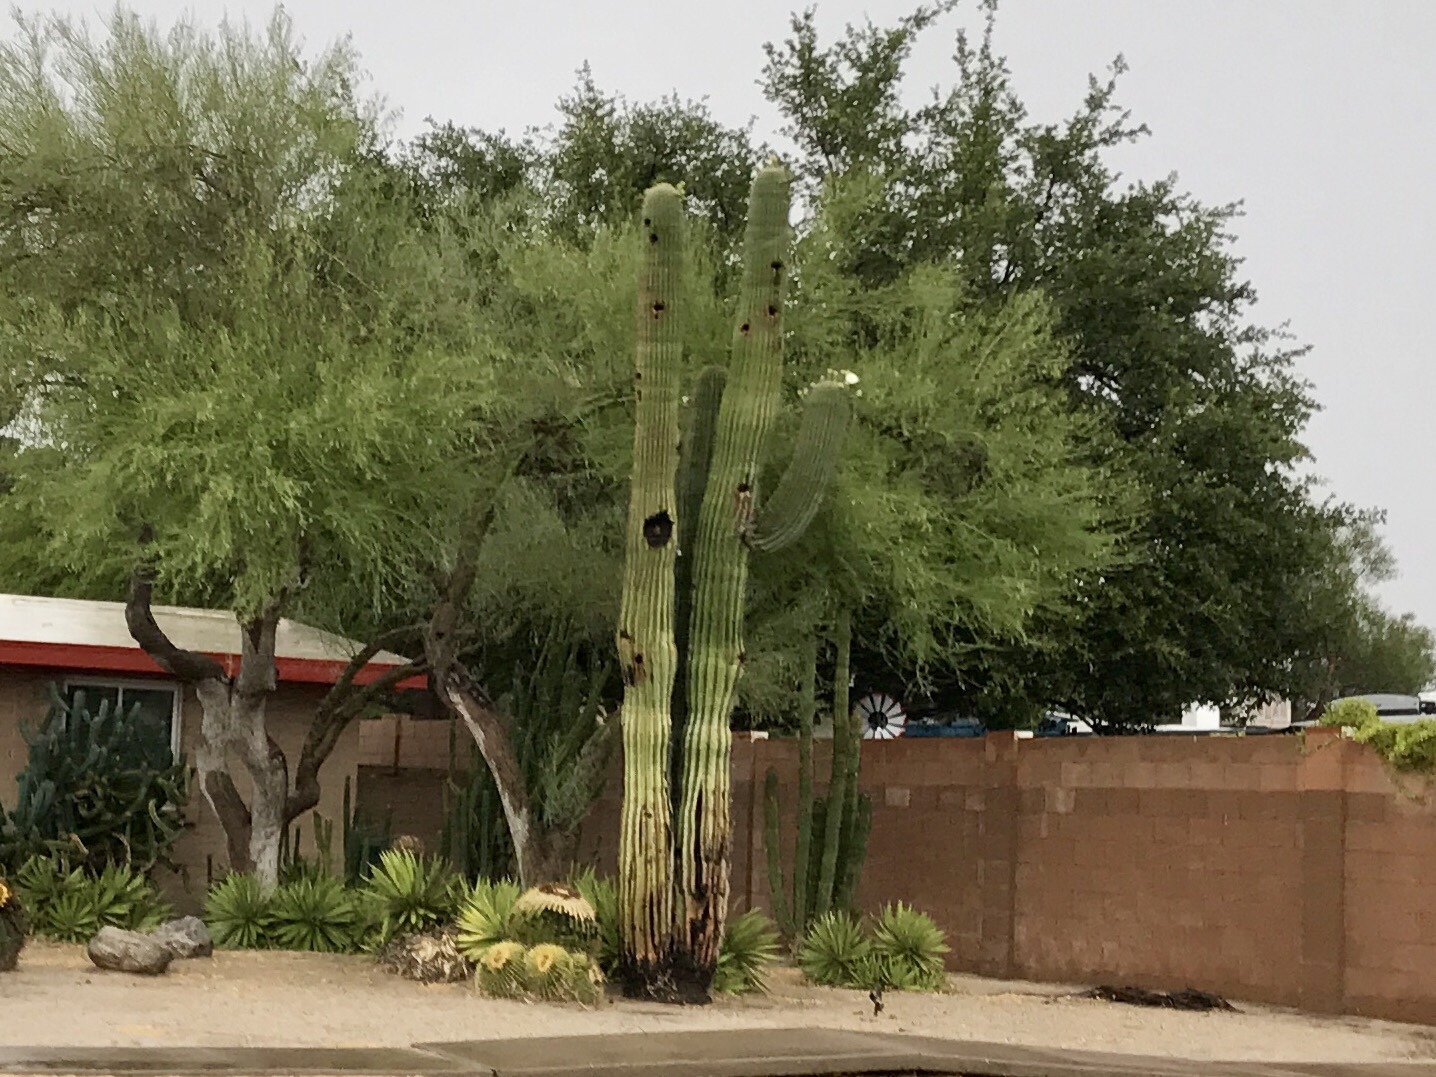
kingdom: Plantae
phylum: Tracheophyta
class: Magnoliopsida
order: Caryophyllales
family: Cactaceae
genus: Carnegiea
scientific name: Carnegiea gigantea
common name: Saguaro
